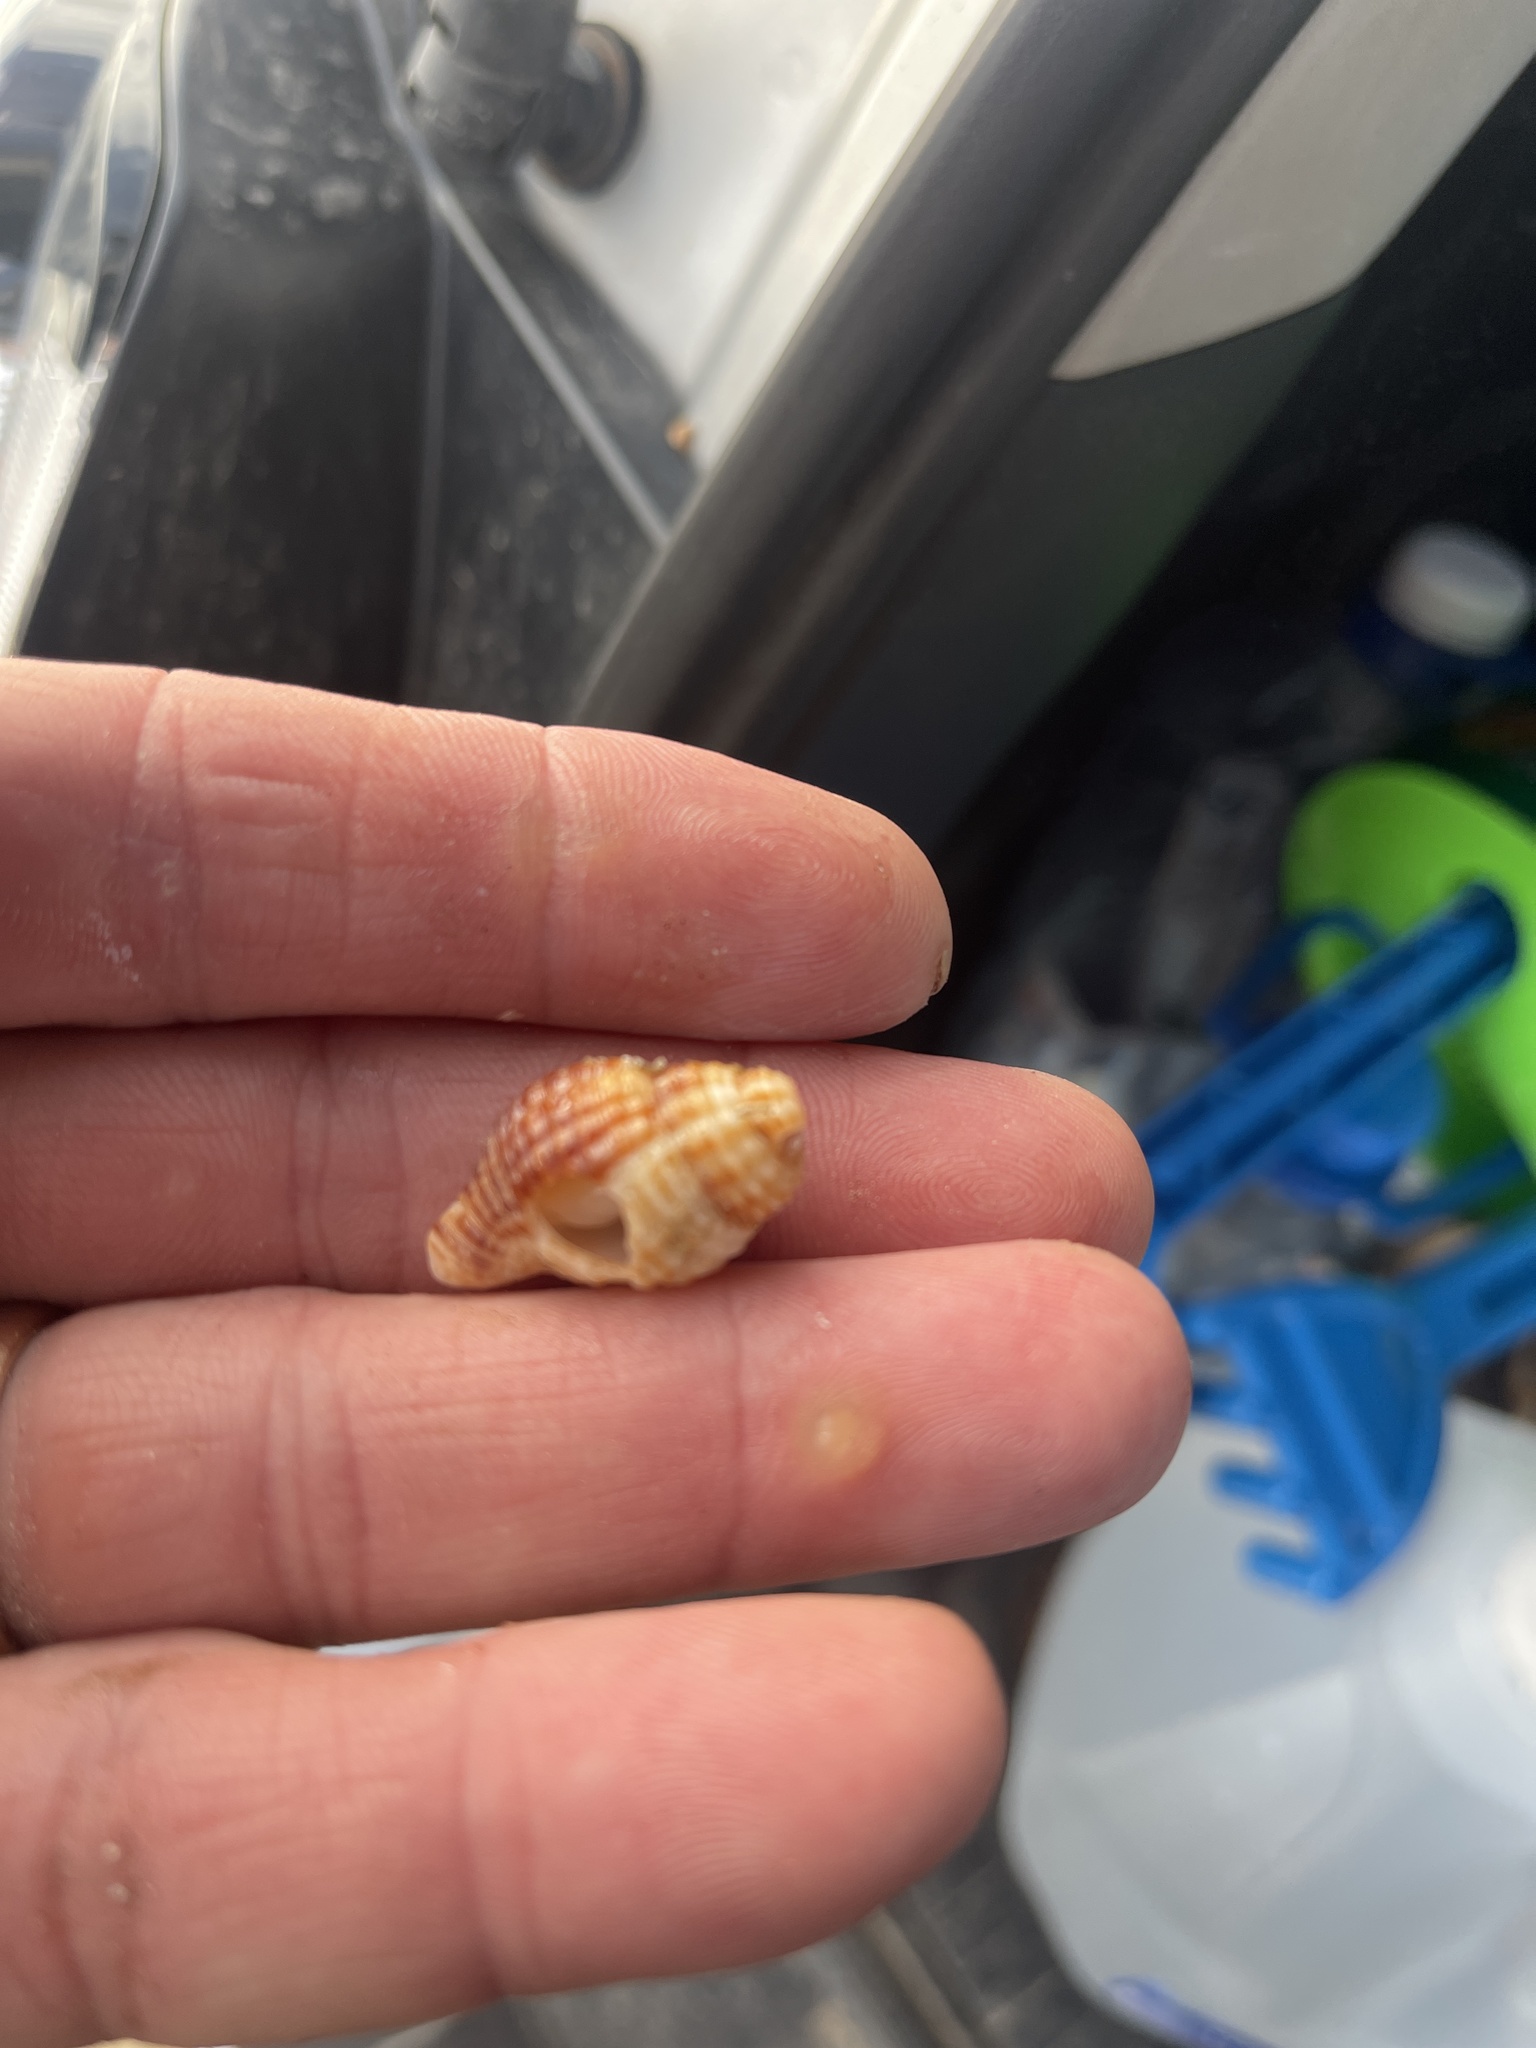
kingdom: Animalia
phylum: Mollusca
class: Gastropoda
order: Neogastropoda
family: Pisaniidae
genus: Solenosteira
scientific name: Solenosteira cancellaria
